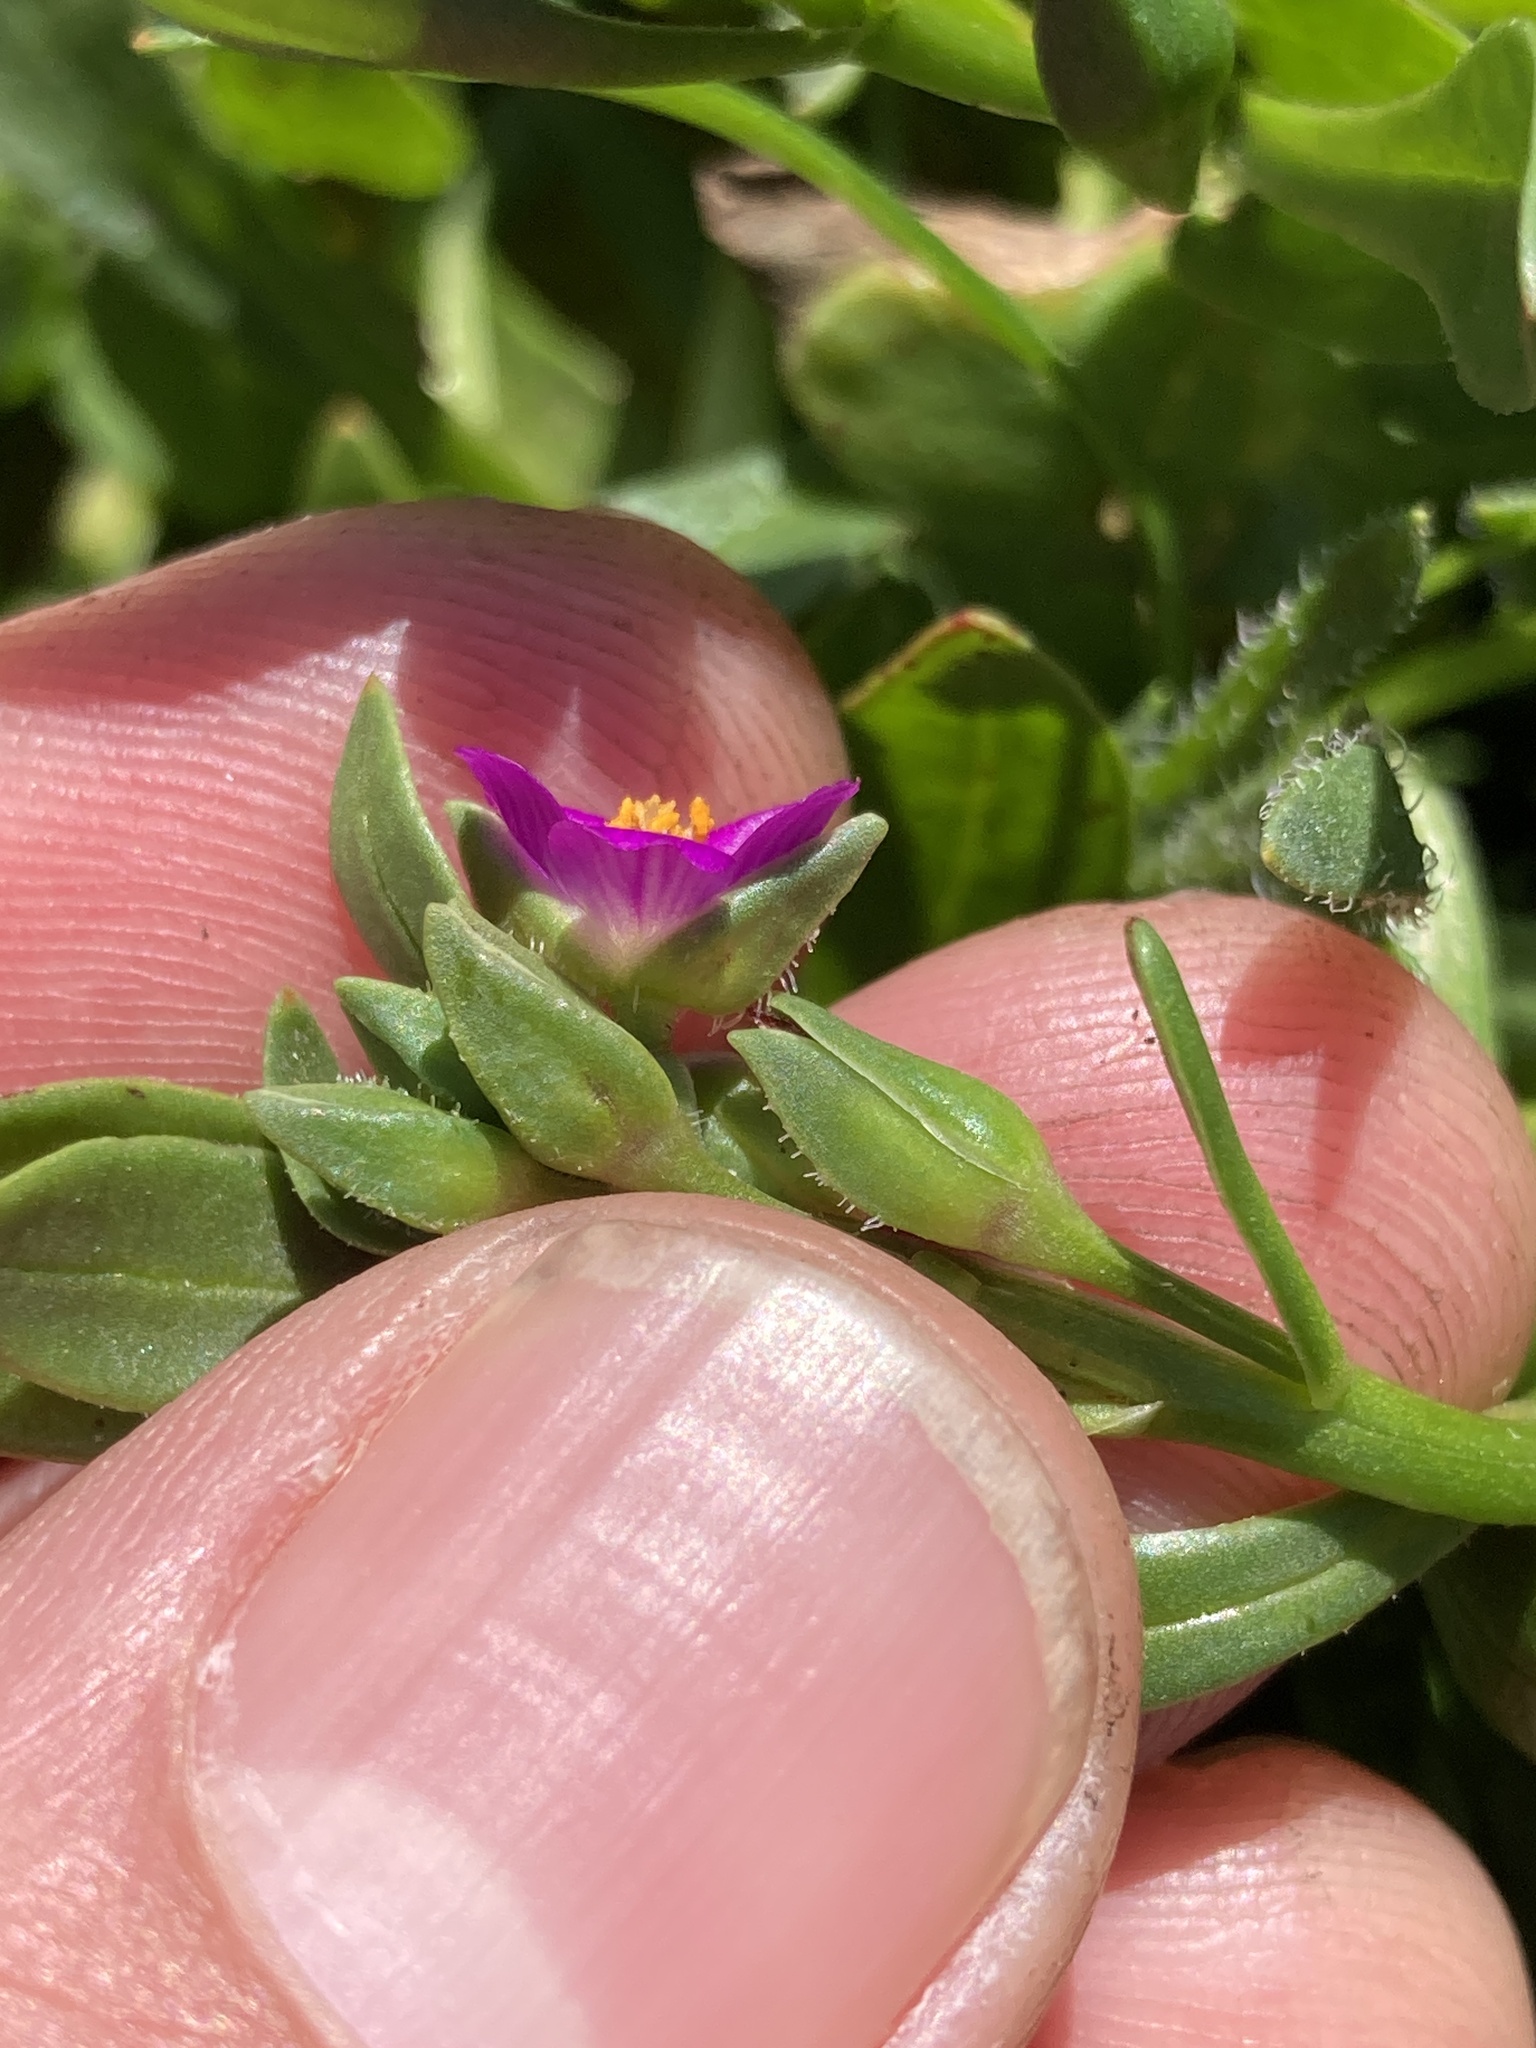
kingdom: Plantae
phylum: Tracheophyta
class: Magnoliopsida
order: Caryophyllales
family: Montiaceae
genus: Calandrinia
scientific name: Calandrinia menziesii
